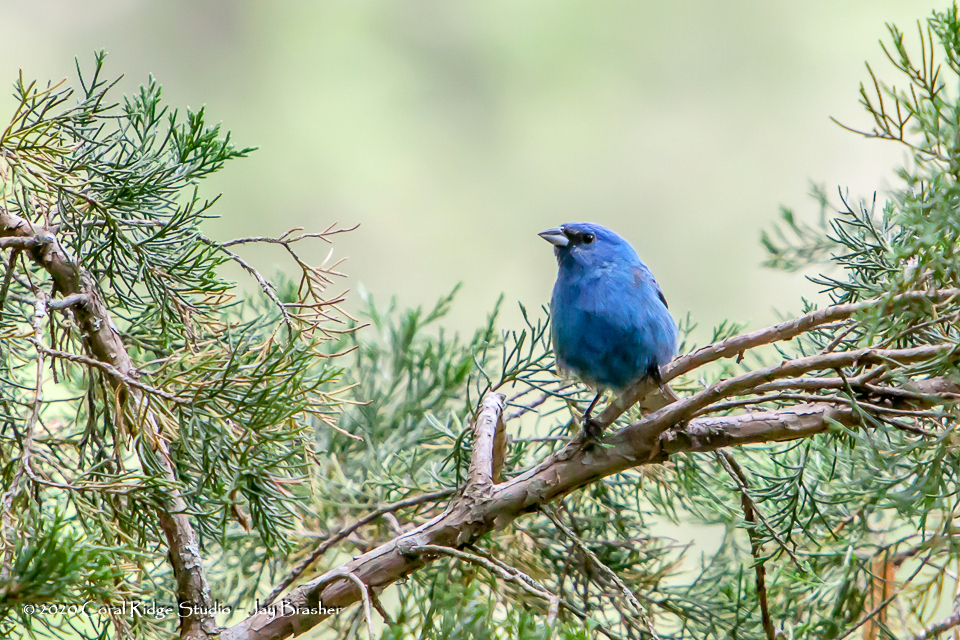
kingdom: Animalia
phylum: Chordata
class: Aves
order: Passeriformes
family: Cardinalidae
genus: Passerina
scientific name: Passerina cyanea
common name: Indigo bunting
